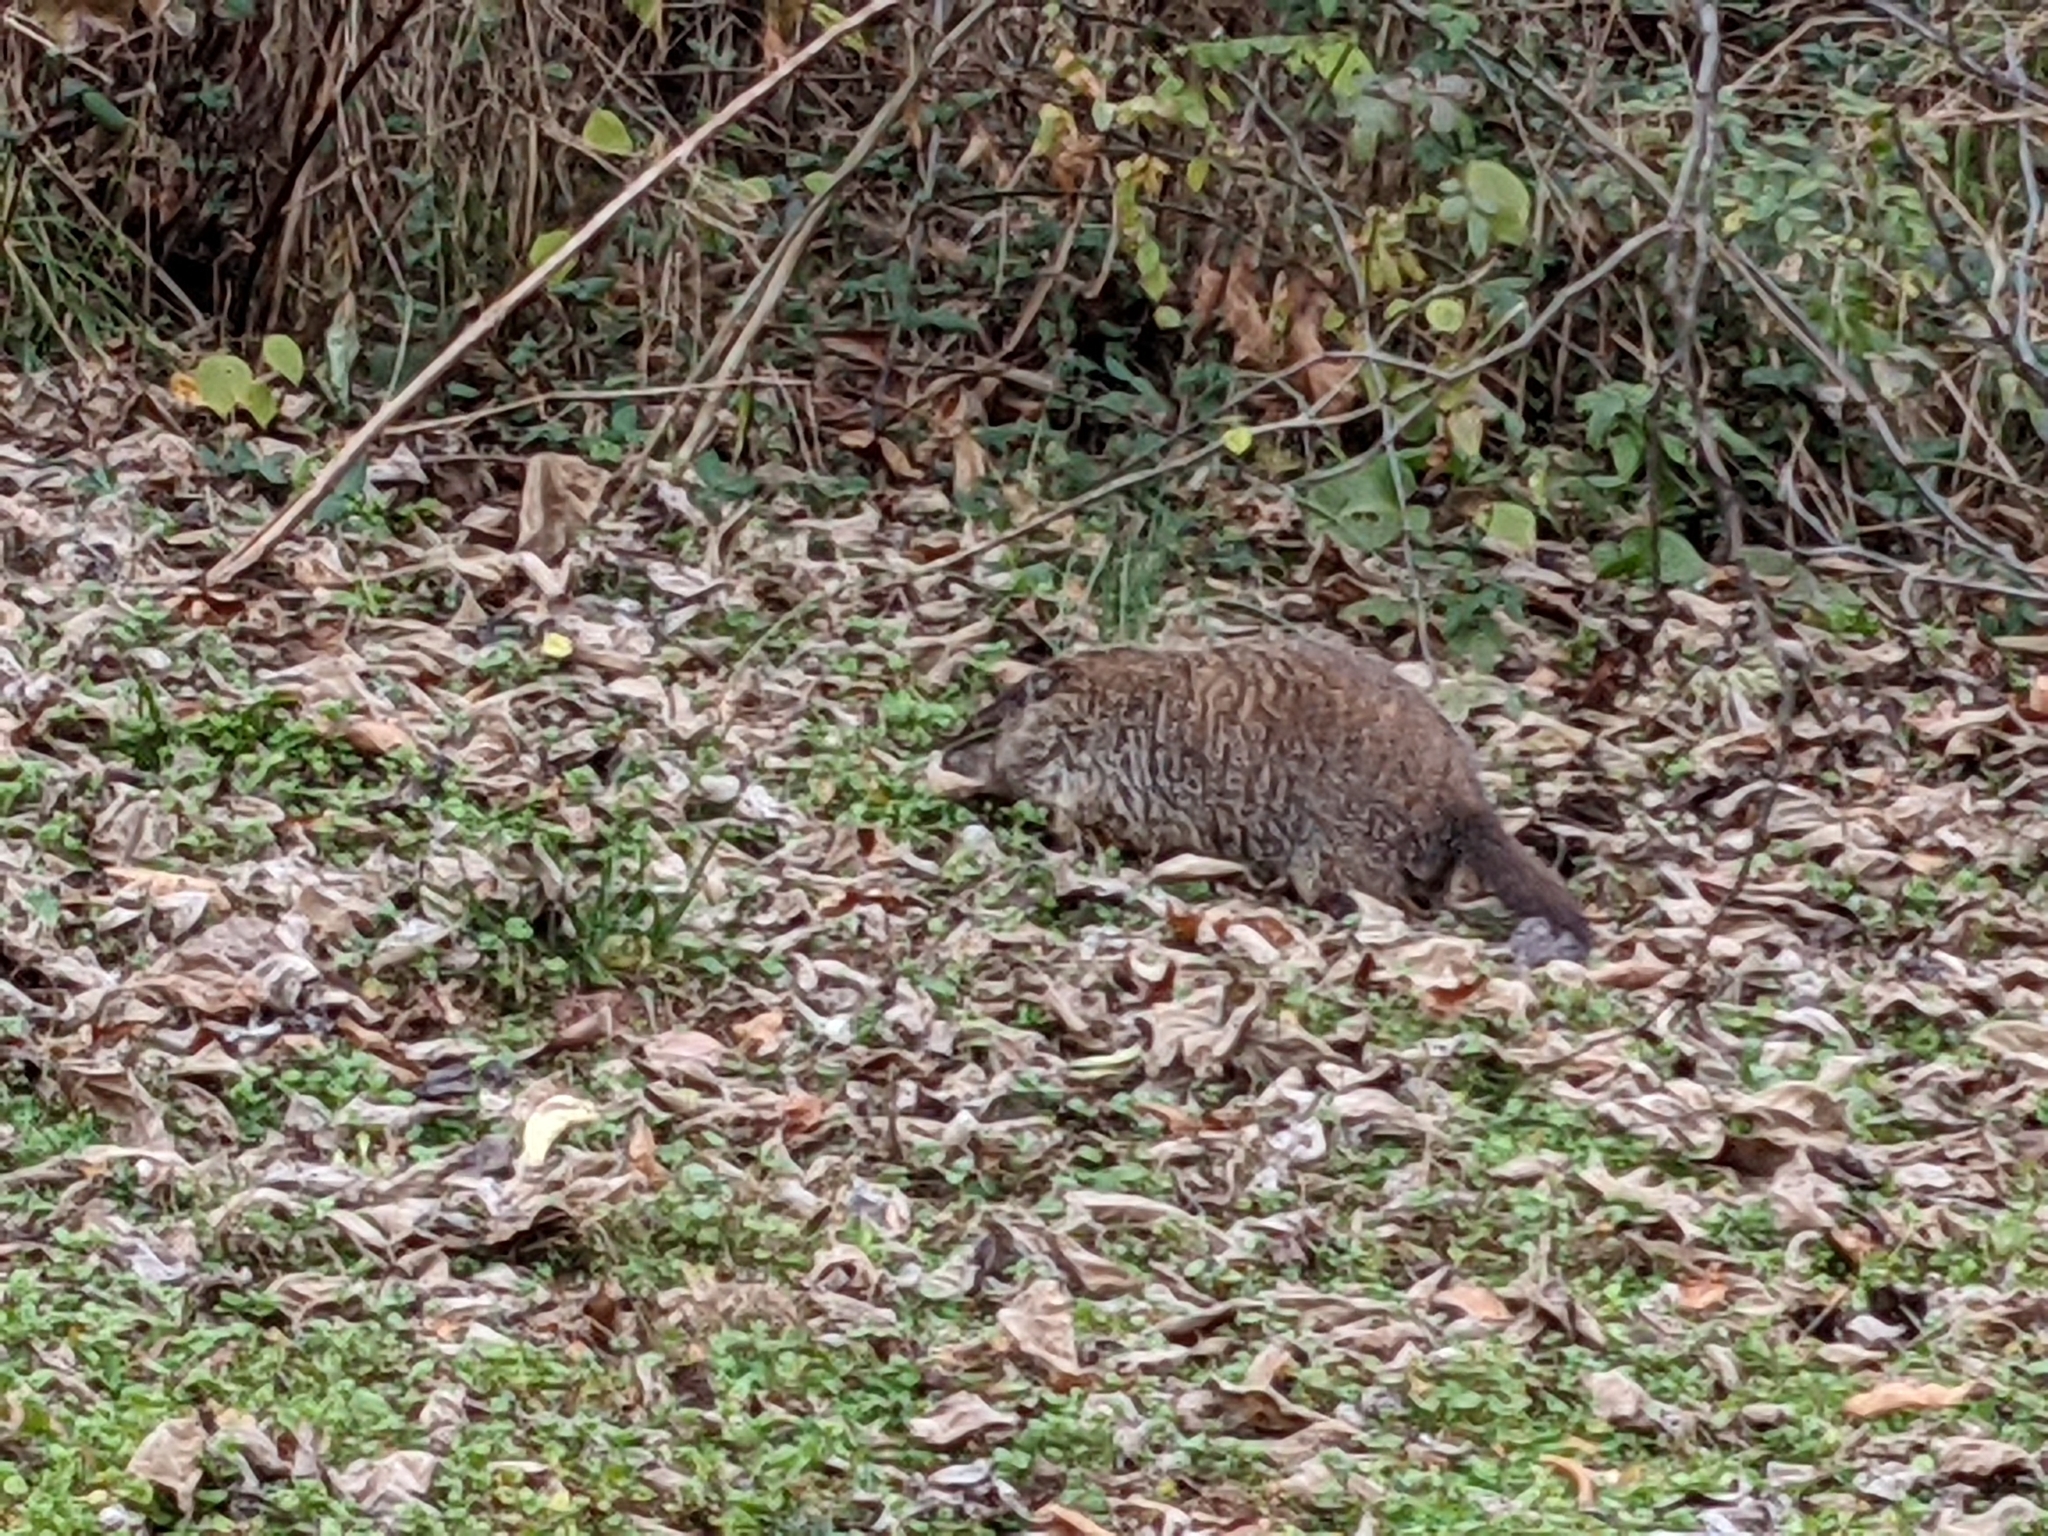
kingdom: Animalia
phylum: Chordata
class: Mammalia
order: Rodentia
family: Sciuridae
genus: Marmota
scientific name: Marmota monax
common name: Groundhog
